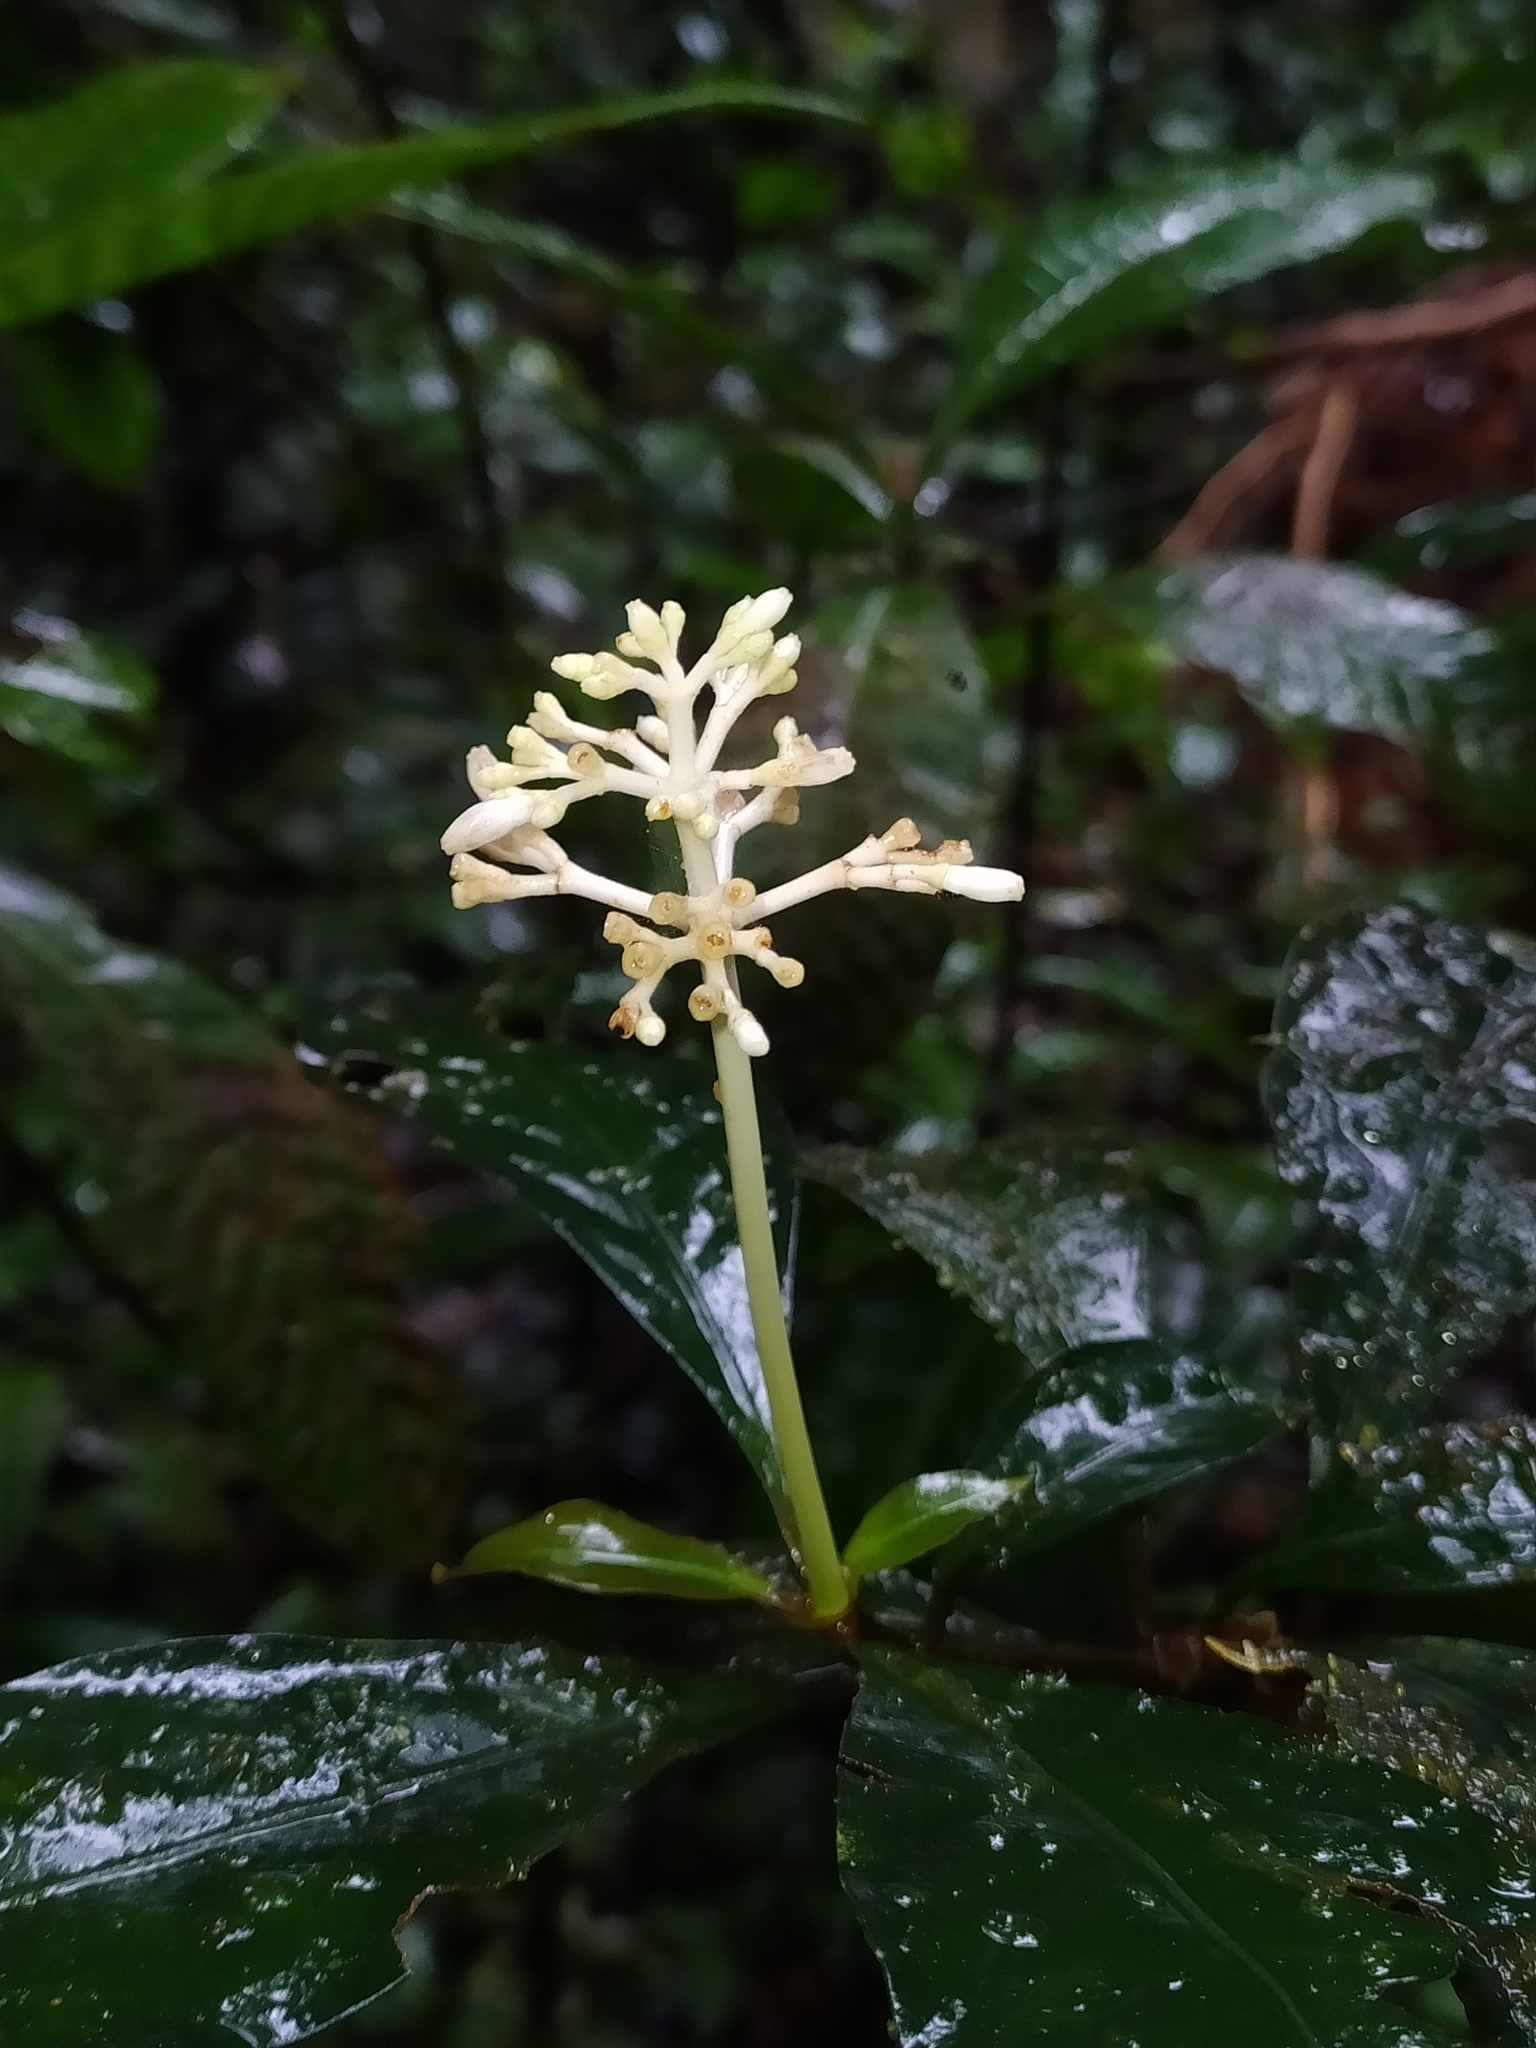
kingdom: Plantae
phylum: Tracheophyta
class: Magnoliopsida
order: Gentianales
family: Rubiaceae
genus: Psychotria
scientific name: Psychotria cupularis
